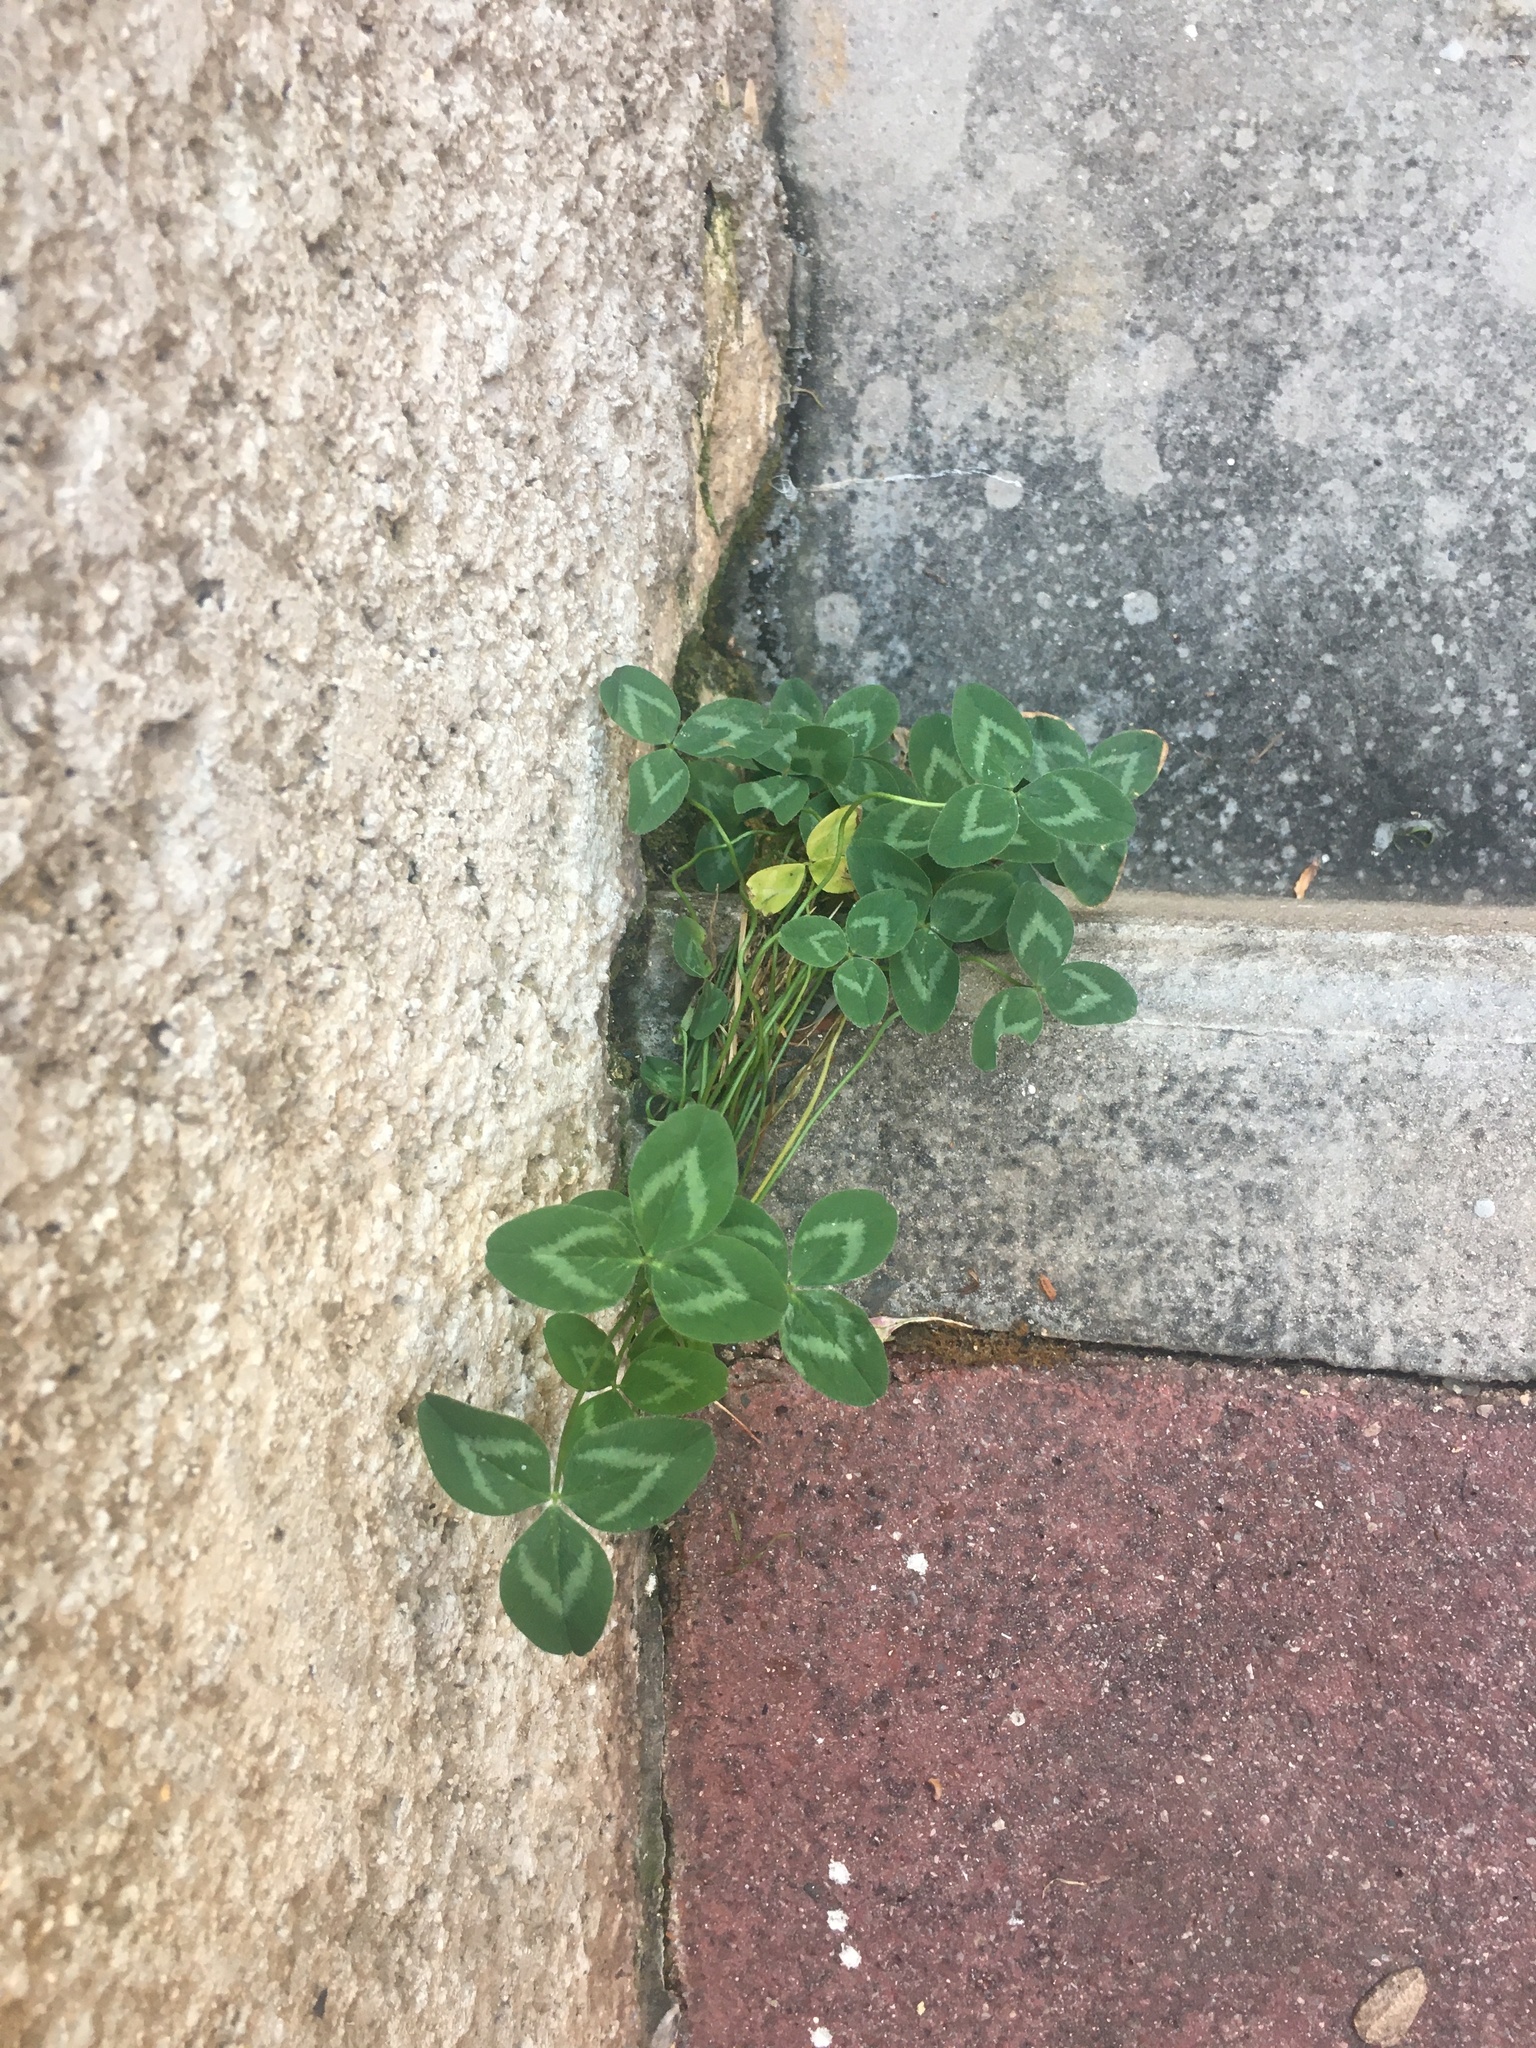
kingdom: Plantae
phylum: Tracheophyta
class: Magnoliopsida
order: Fabales
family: Fabaceae
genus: Trifolium
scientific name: Trifolium pratense
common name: Red clover
